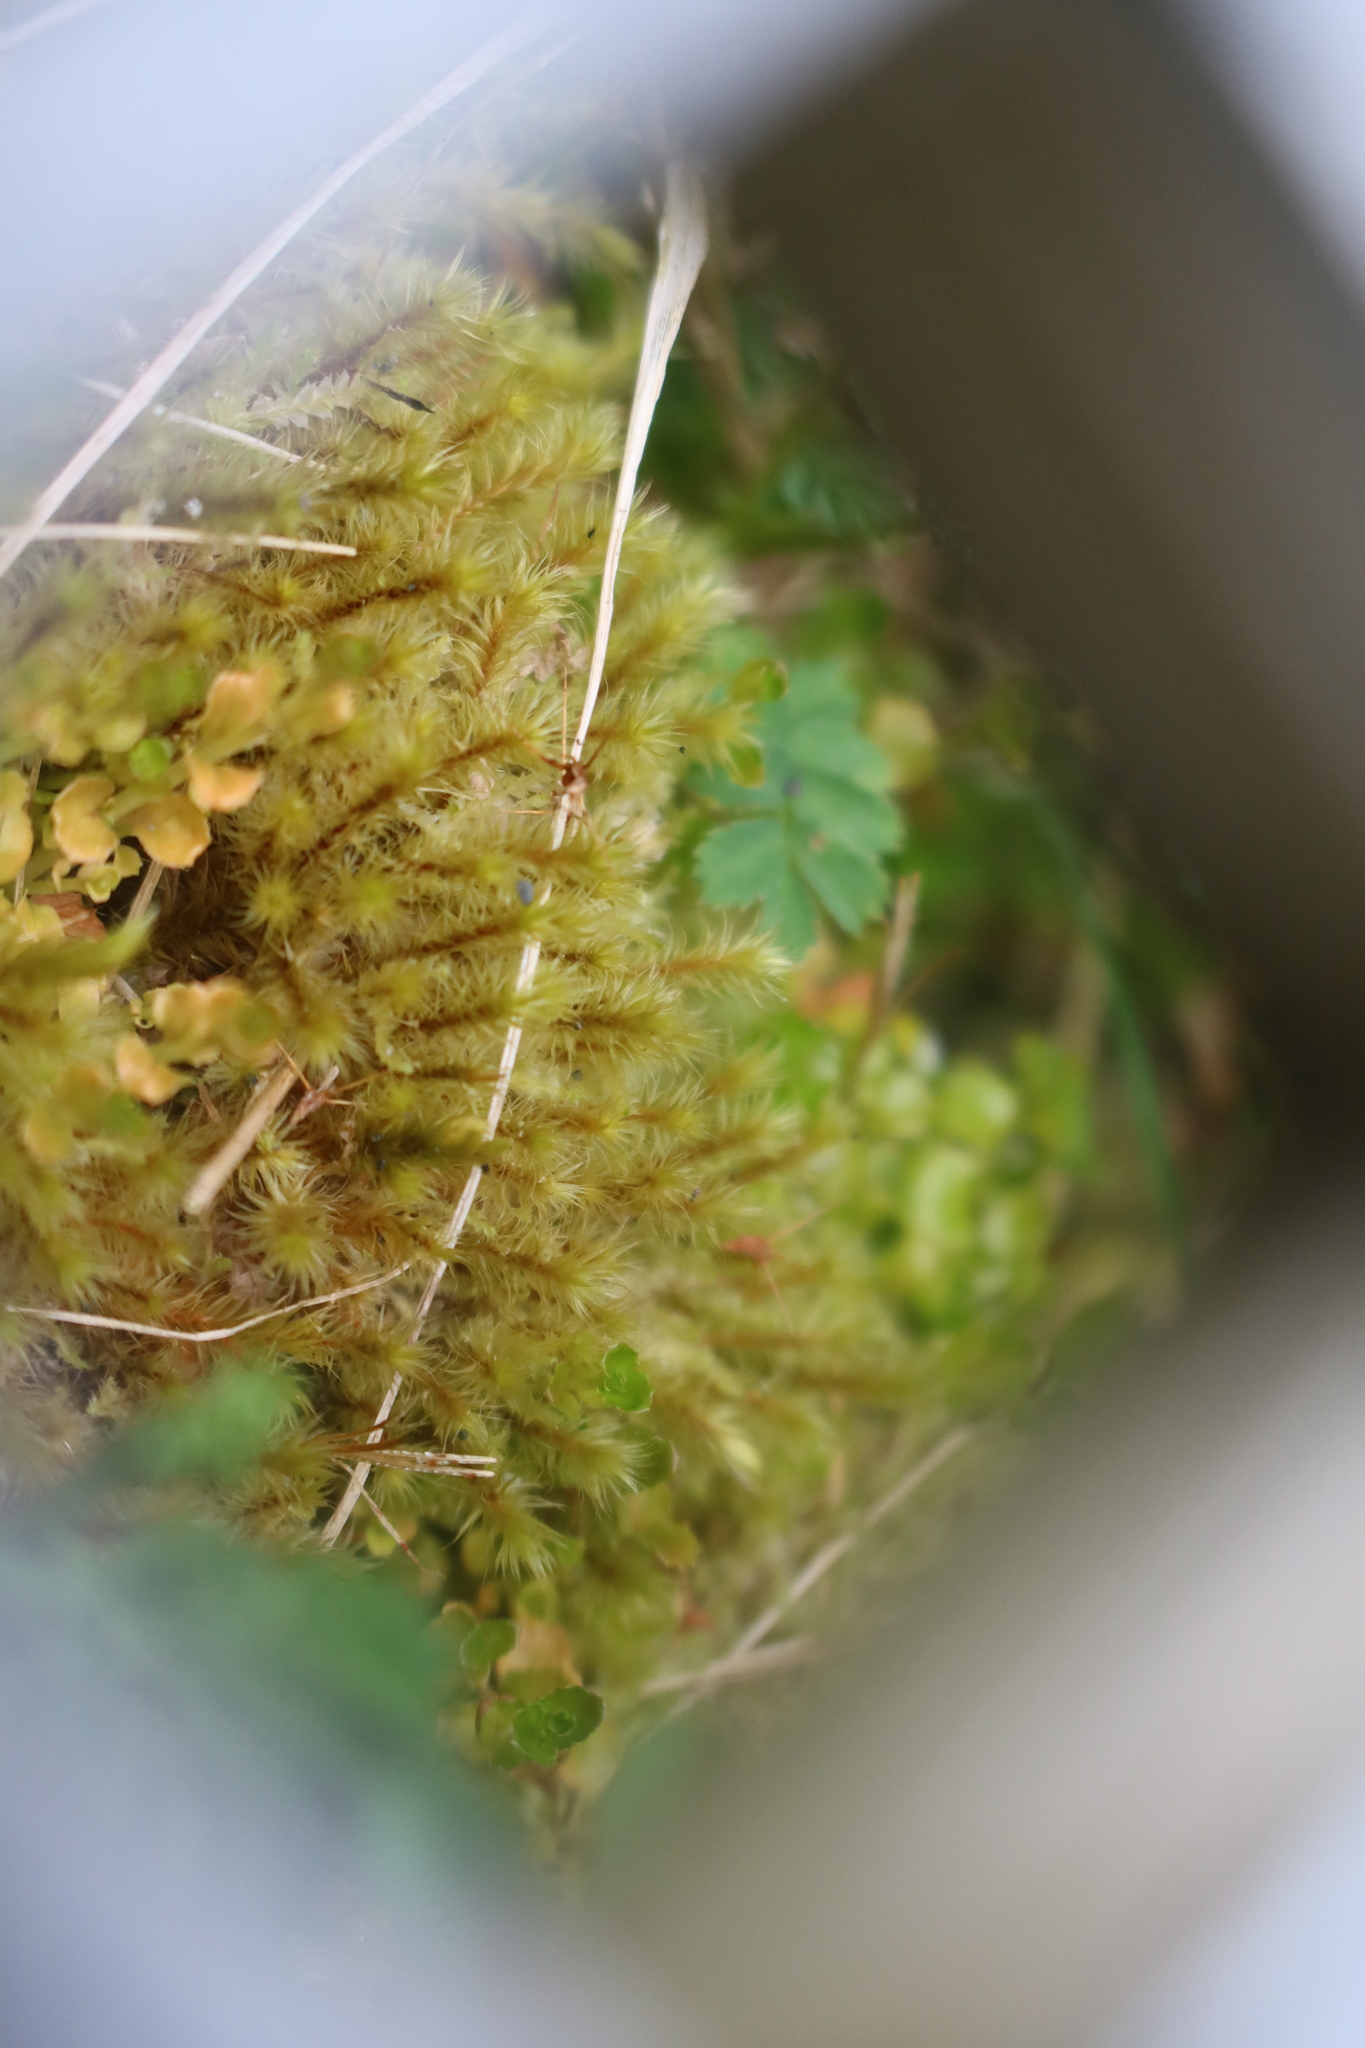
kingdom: Plantae
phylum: Bryophyta
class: Bryopsida
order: Bartramiales
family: Bartramiaceae
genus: Breutelia
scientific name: Breutelia affinis
